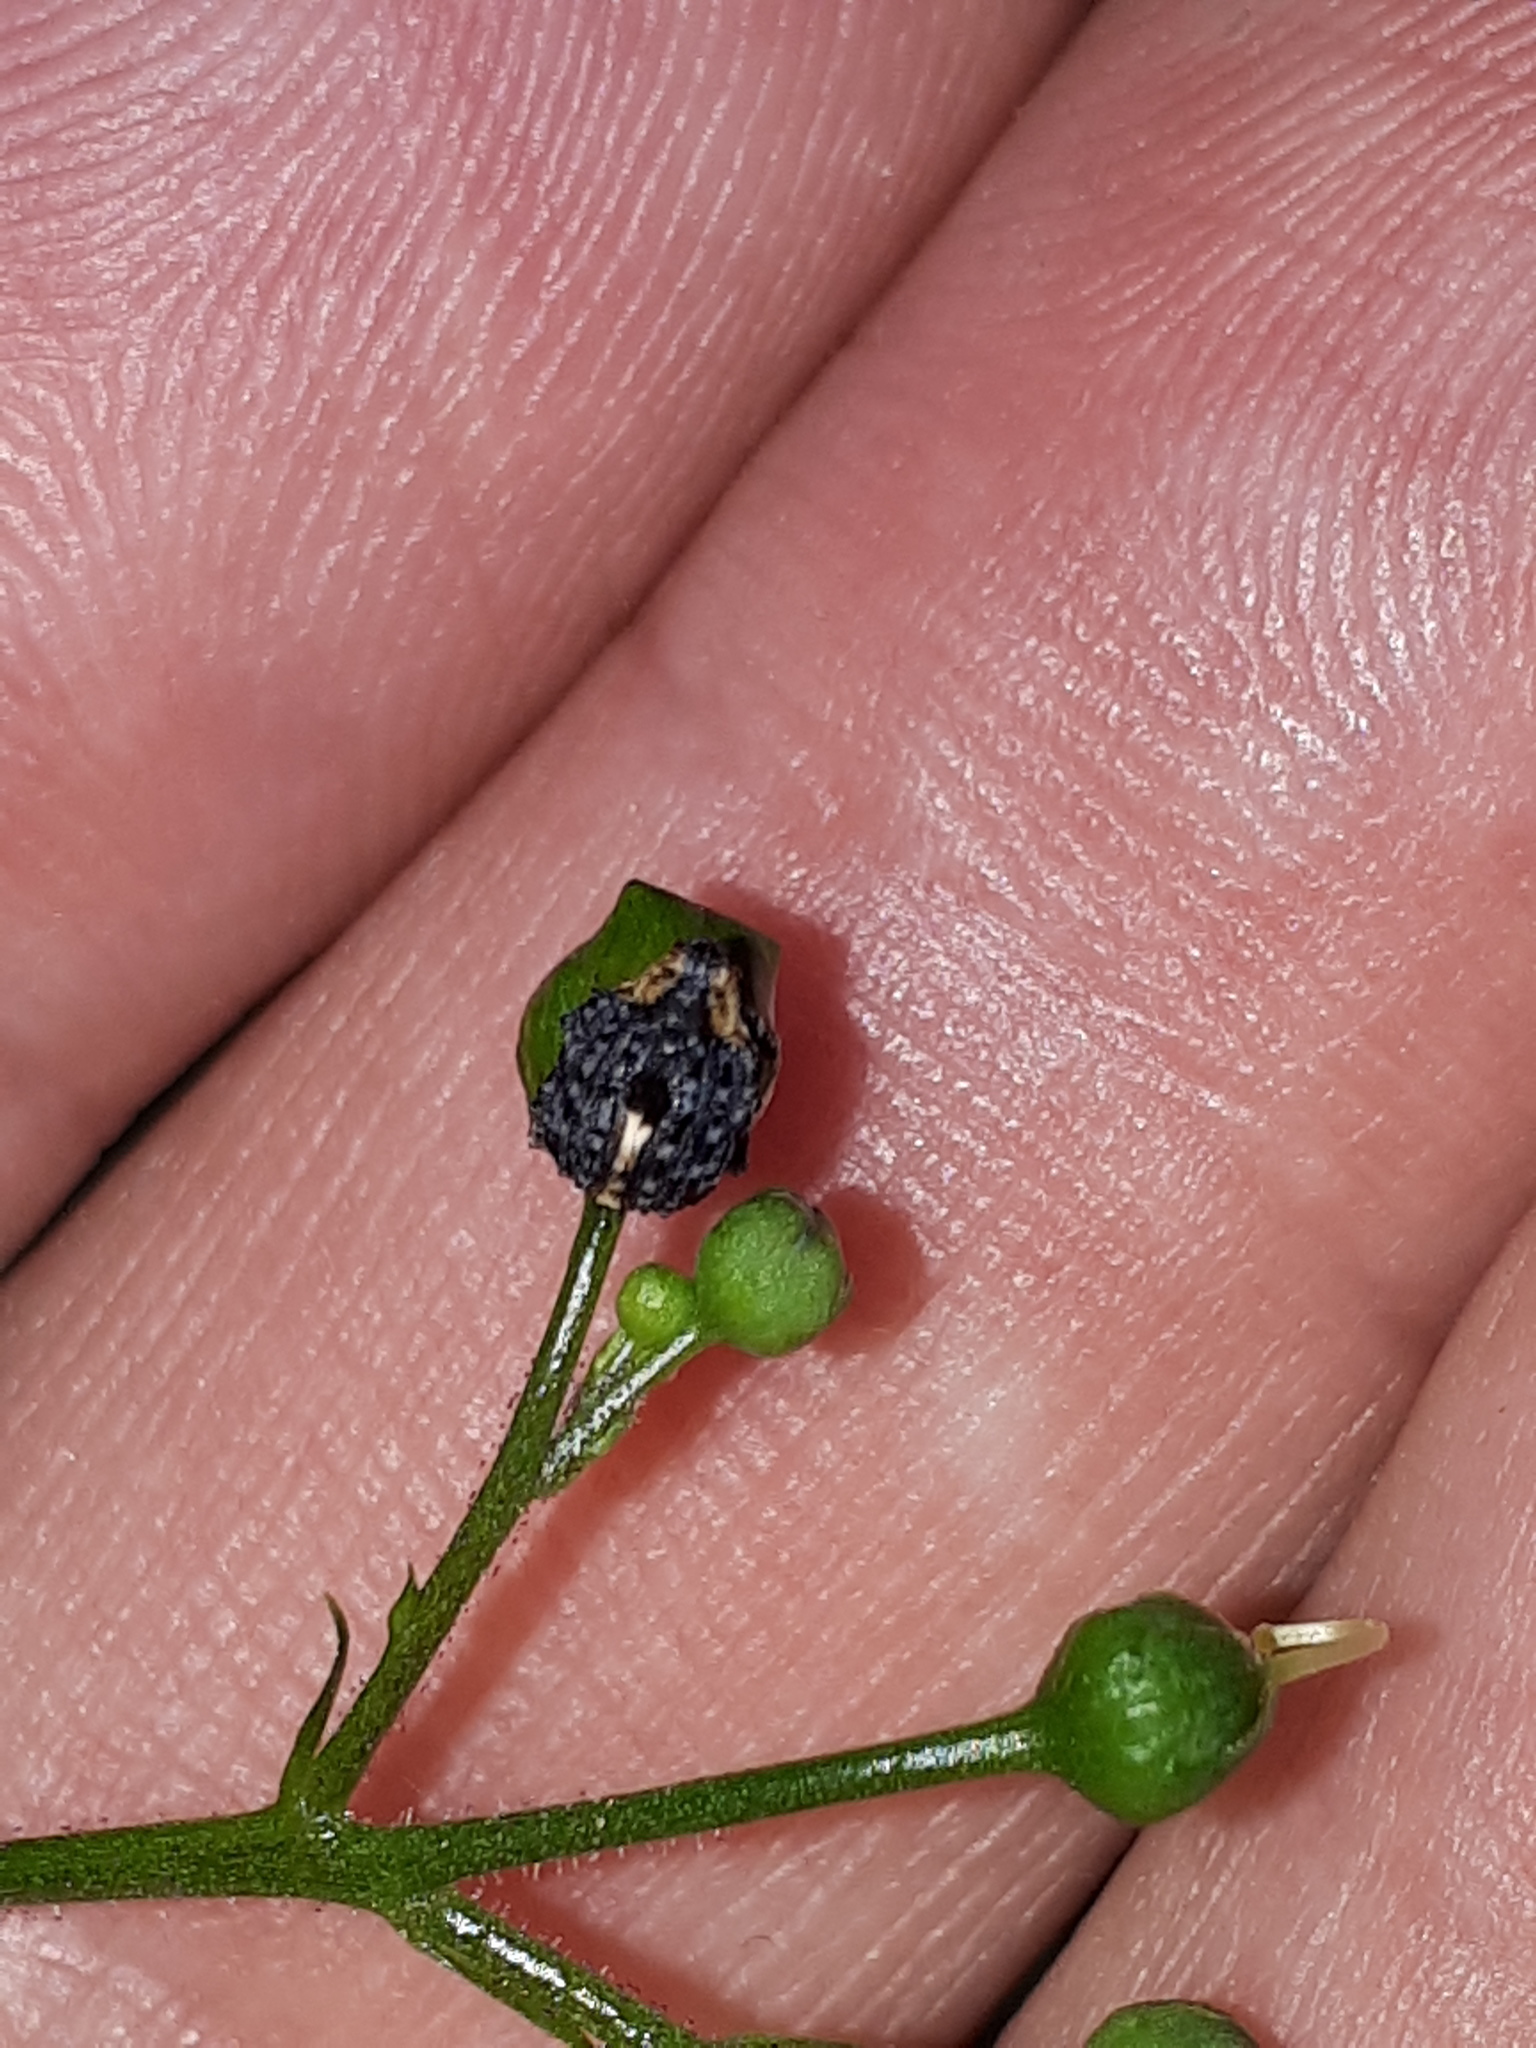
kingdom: Animalia
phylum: Arthropoda
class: Insecta
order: Coleoptera
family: Curculionidae
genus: Cionus
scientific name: Cionus tuberculosus
